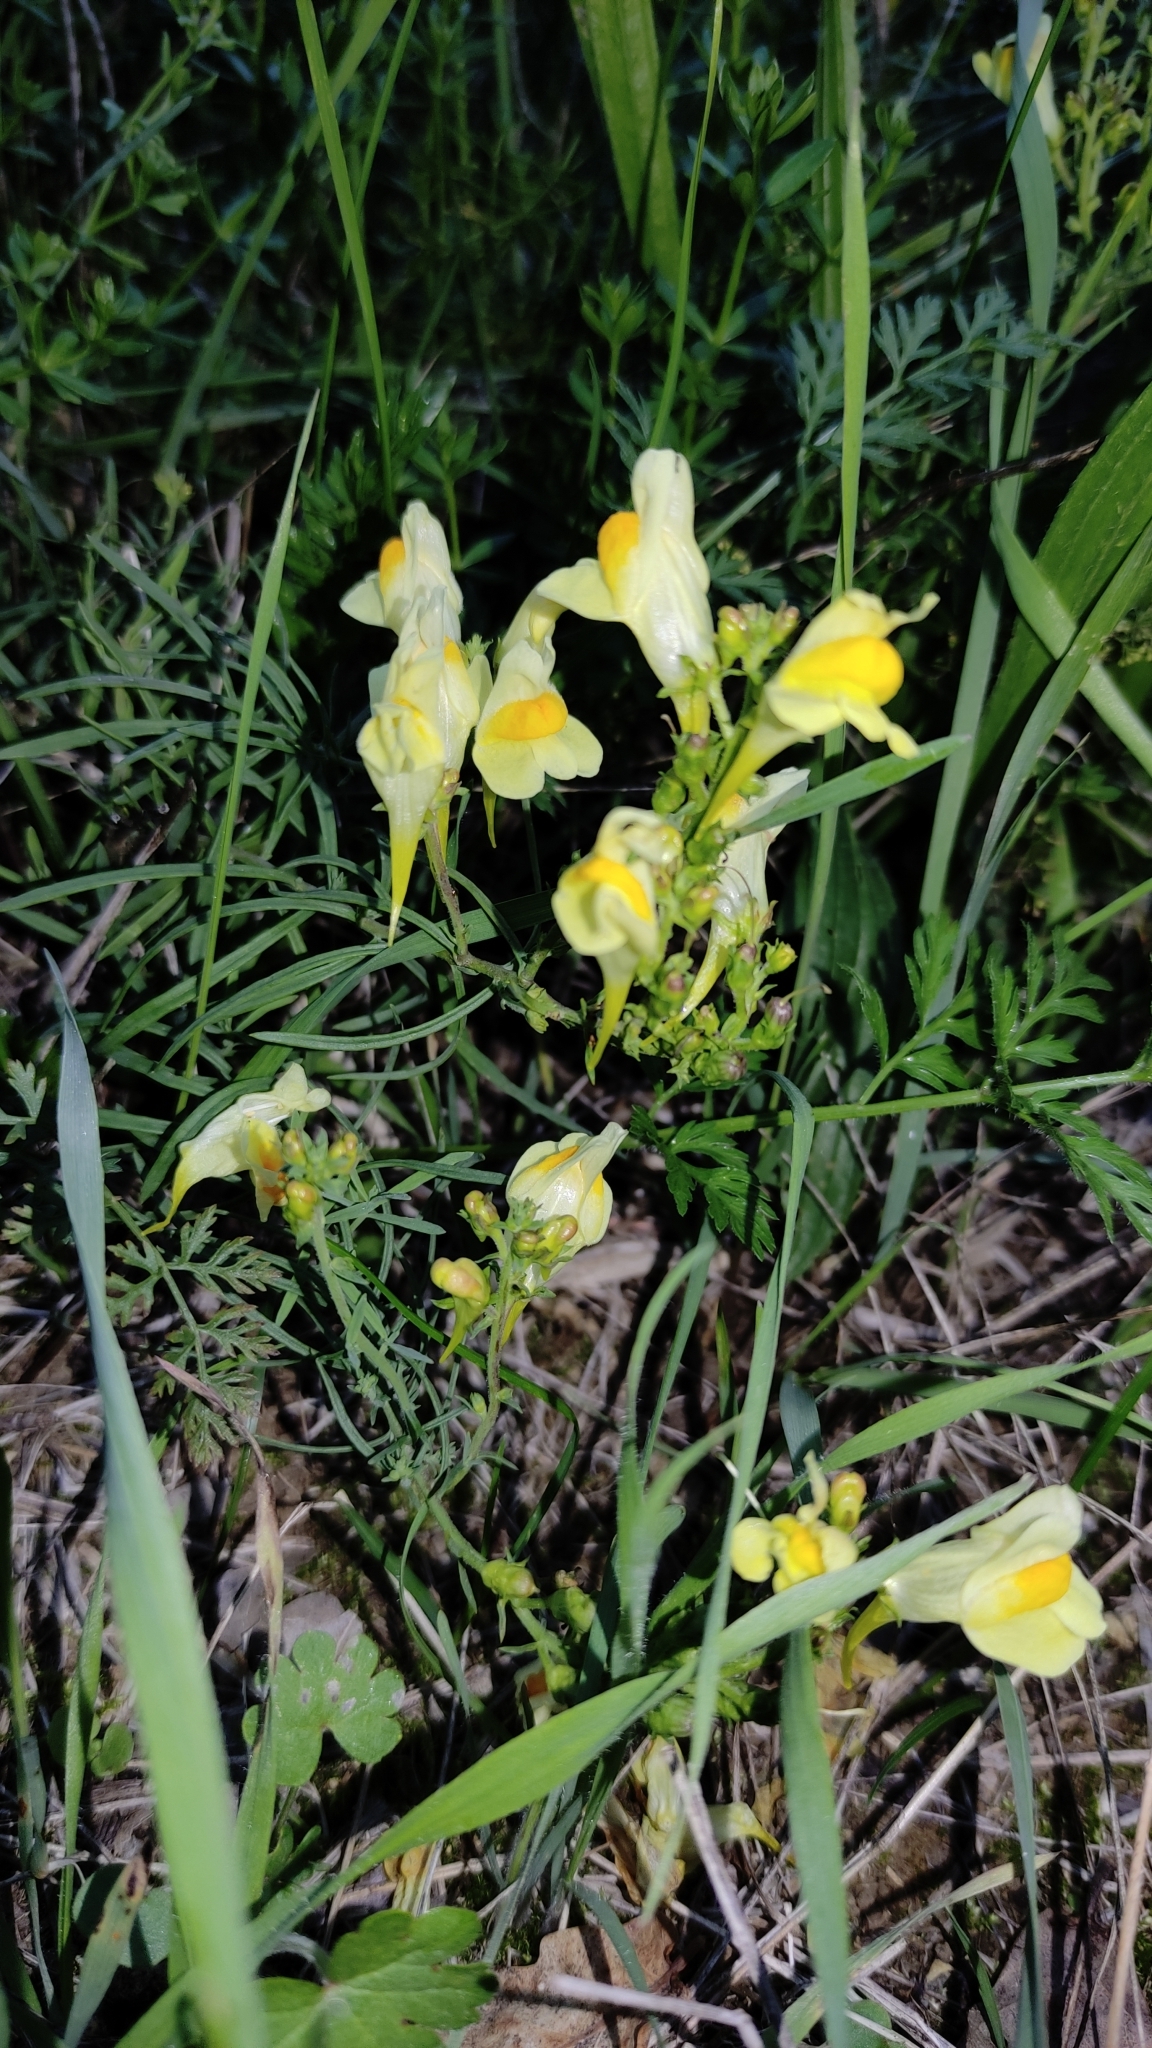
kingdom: Plantae
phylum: Tracheophyta
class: Magnoliopsida
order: Lamiales
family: Plantaginaceae
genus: Linaria
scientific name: Linaria vulgaris
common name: Butter and eggs
